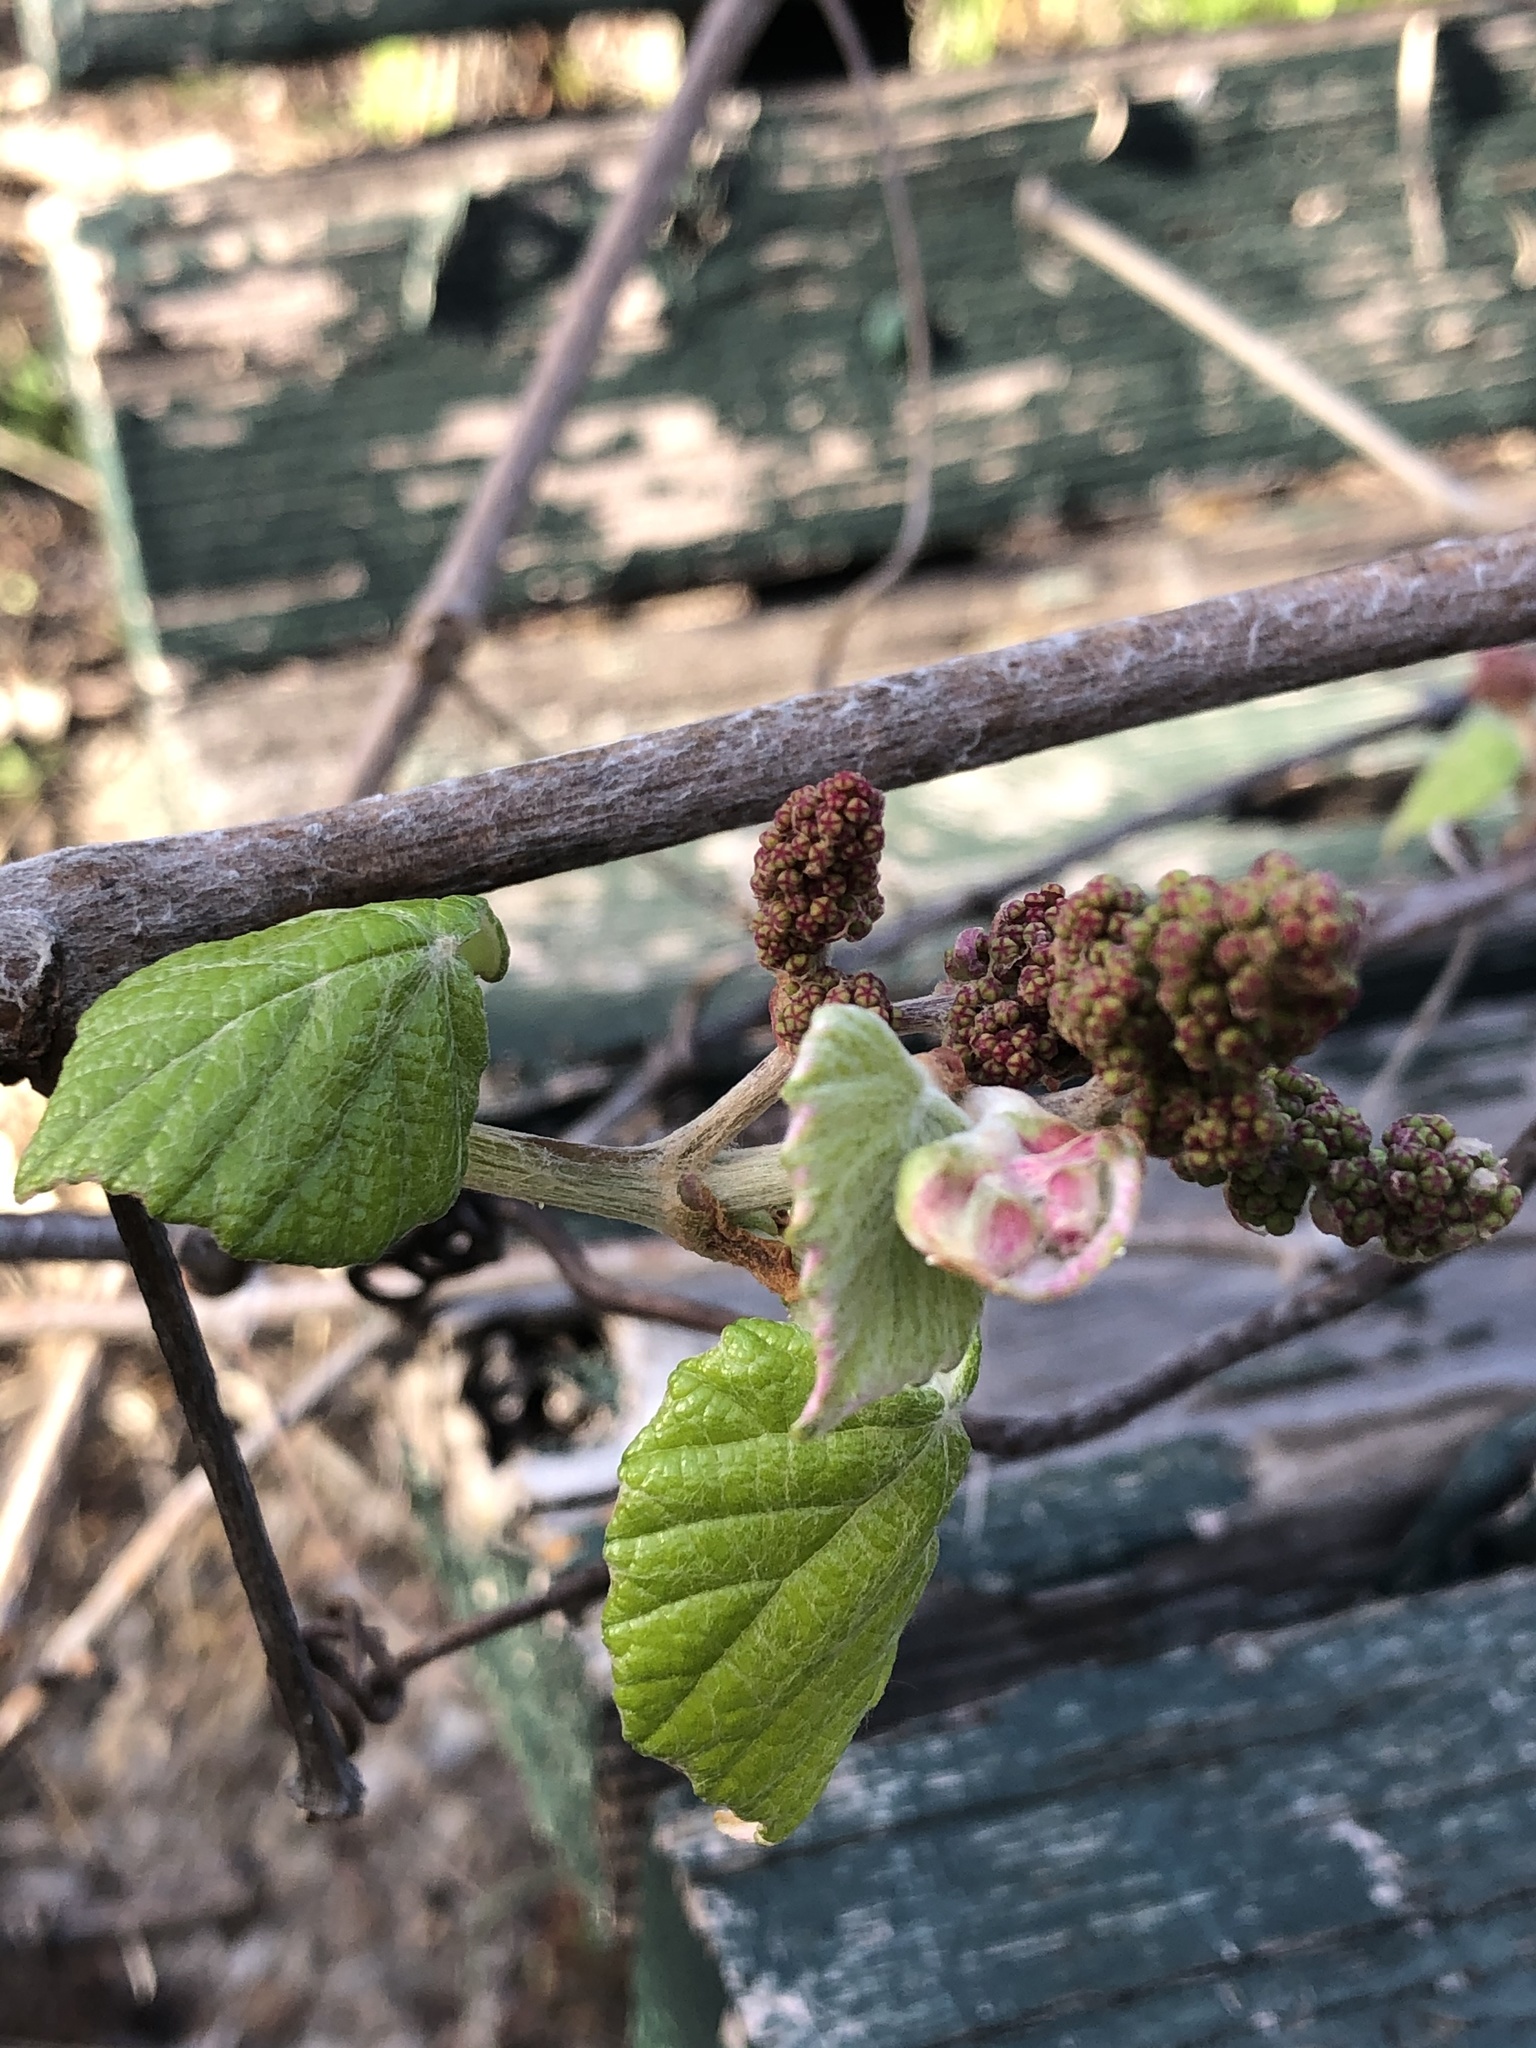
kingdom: Plantae
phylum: Tracheophyta
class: Magnoliopsida
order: Vitales
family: Vitaceae
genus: Vitis
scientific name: Vitis mustangensis
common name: Mustang grape
